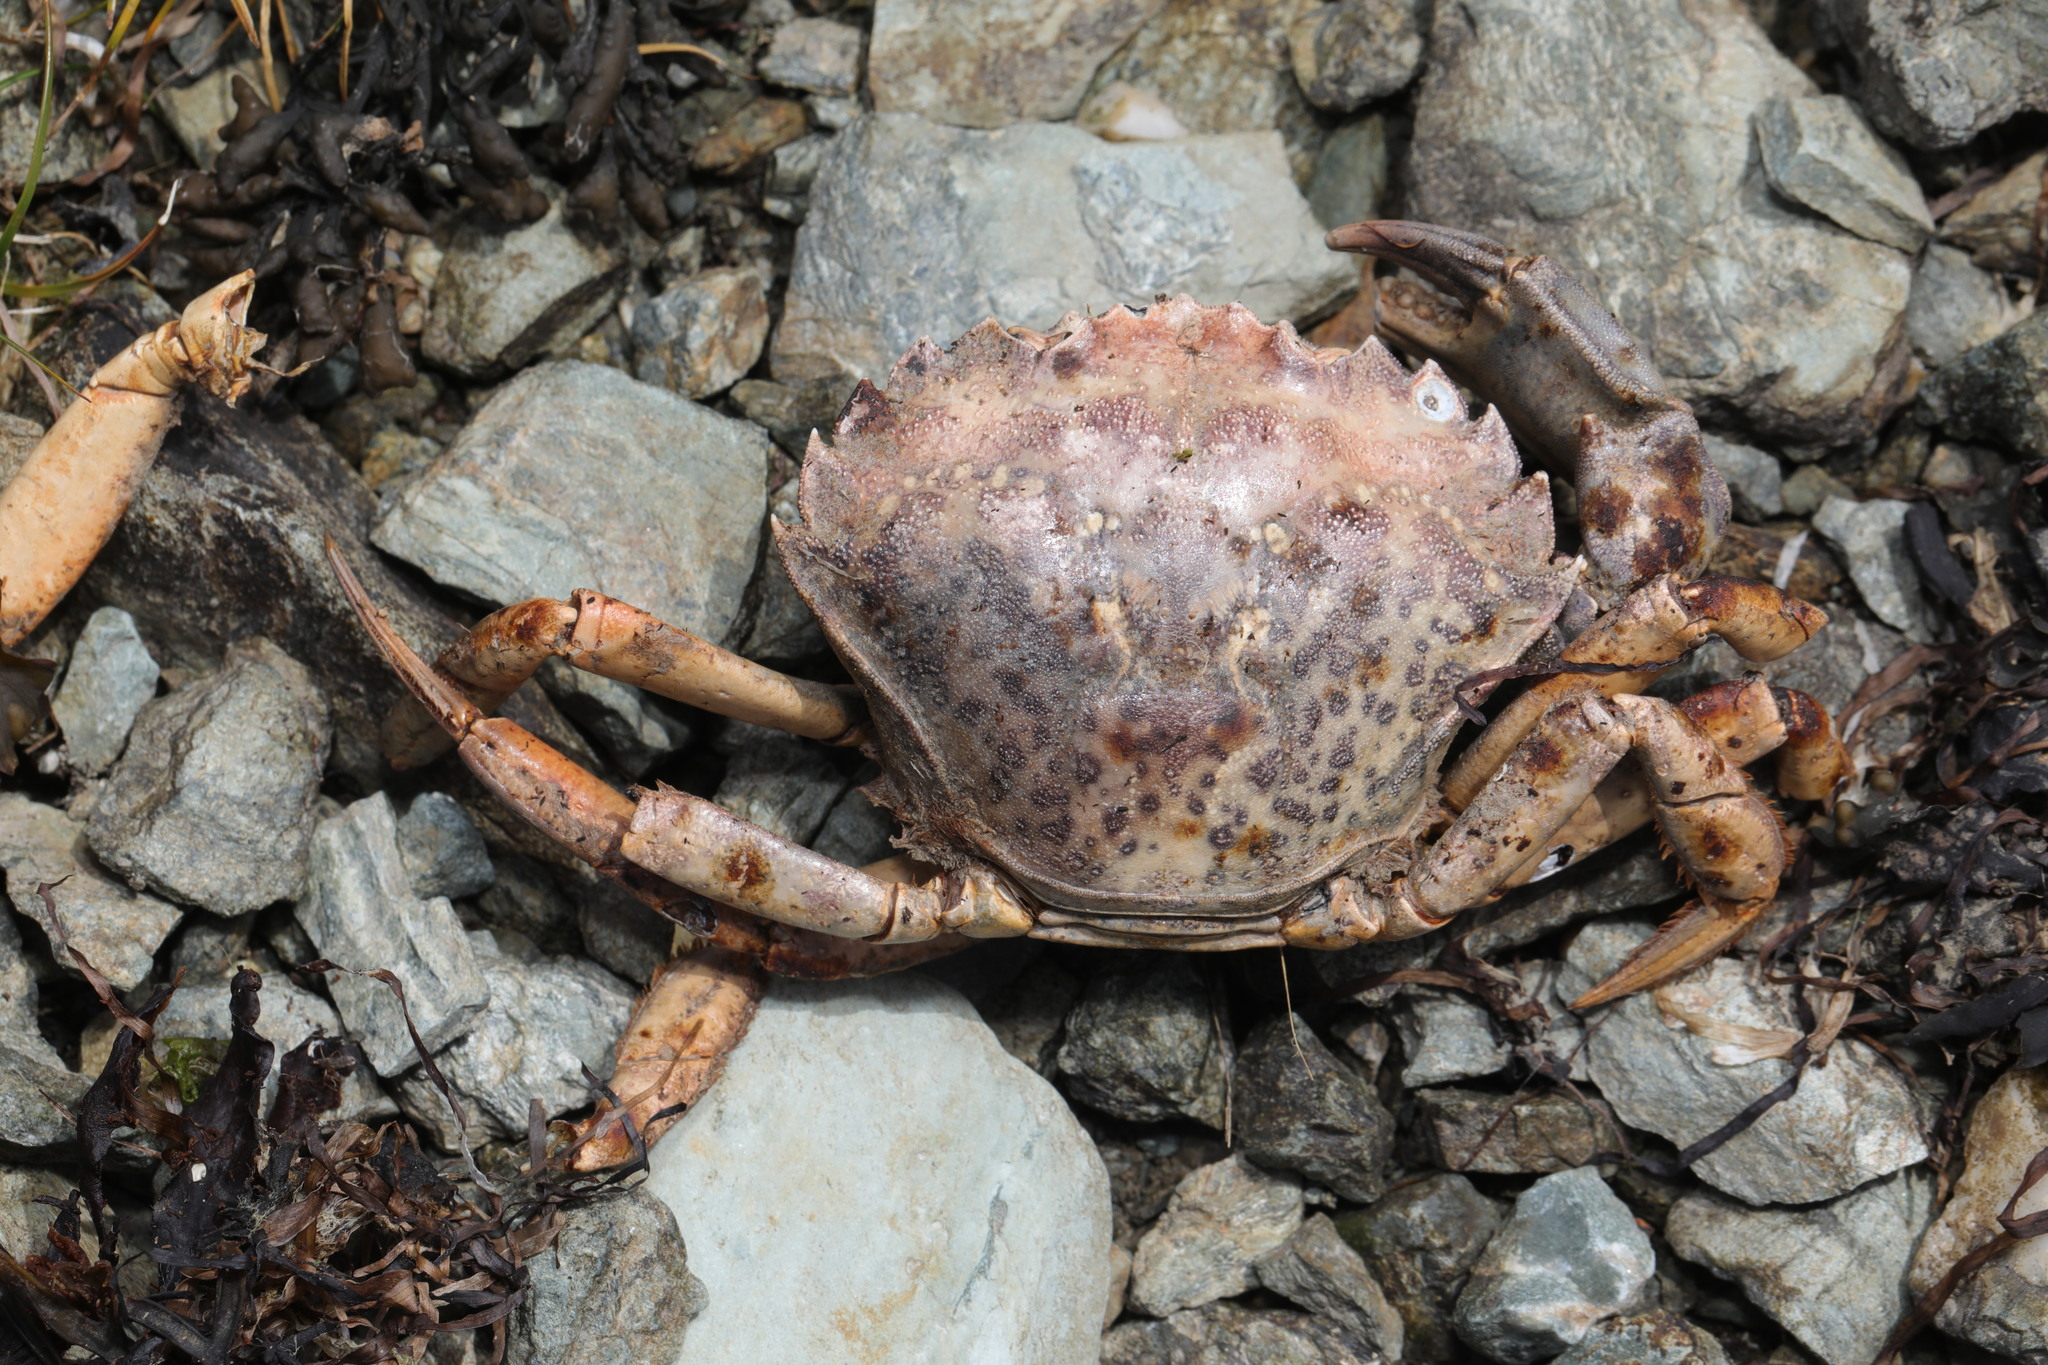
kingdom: Animalia
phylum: Arthropoda
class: Malacostraca
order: Decapoda
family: Carcinidae
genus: Carcinus
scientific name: Carcinus maenas
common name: European green crab
